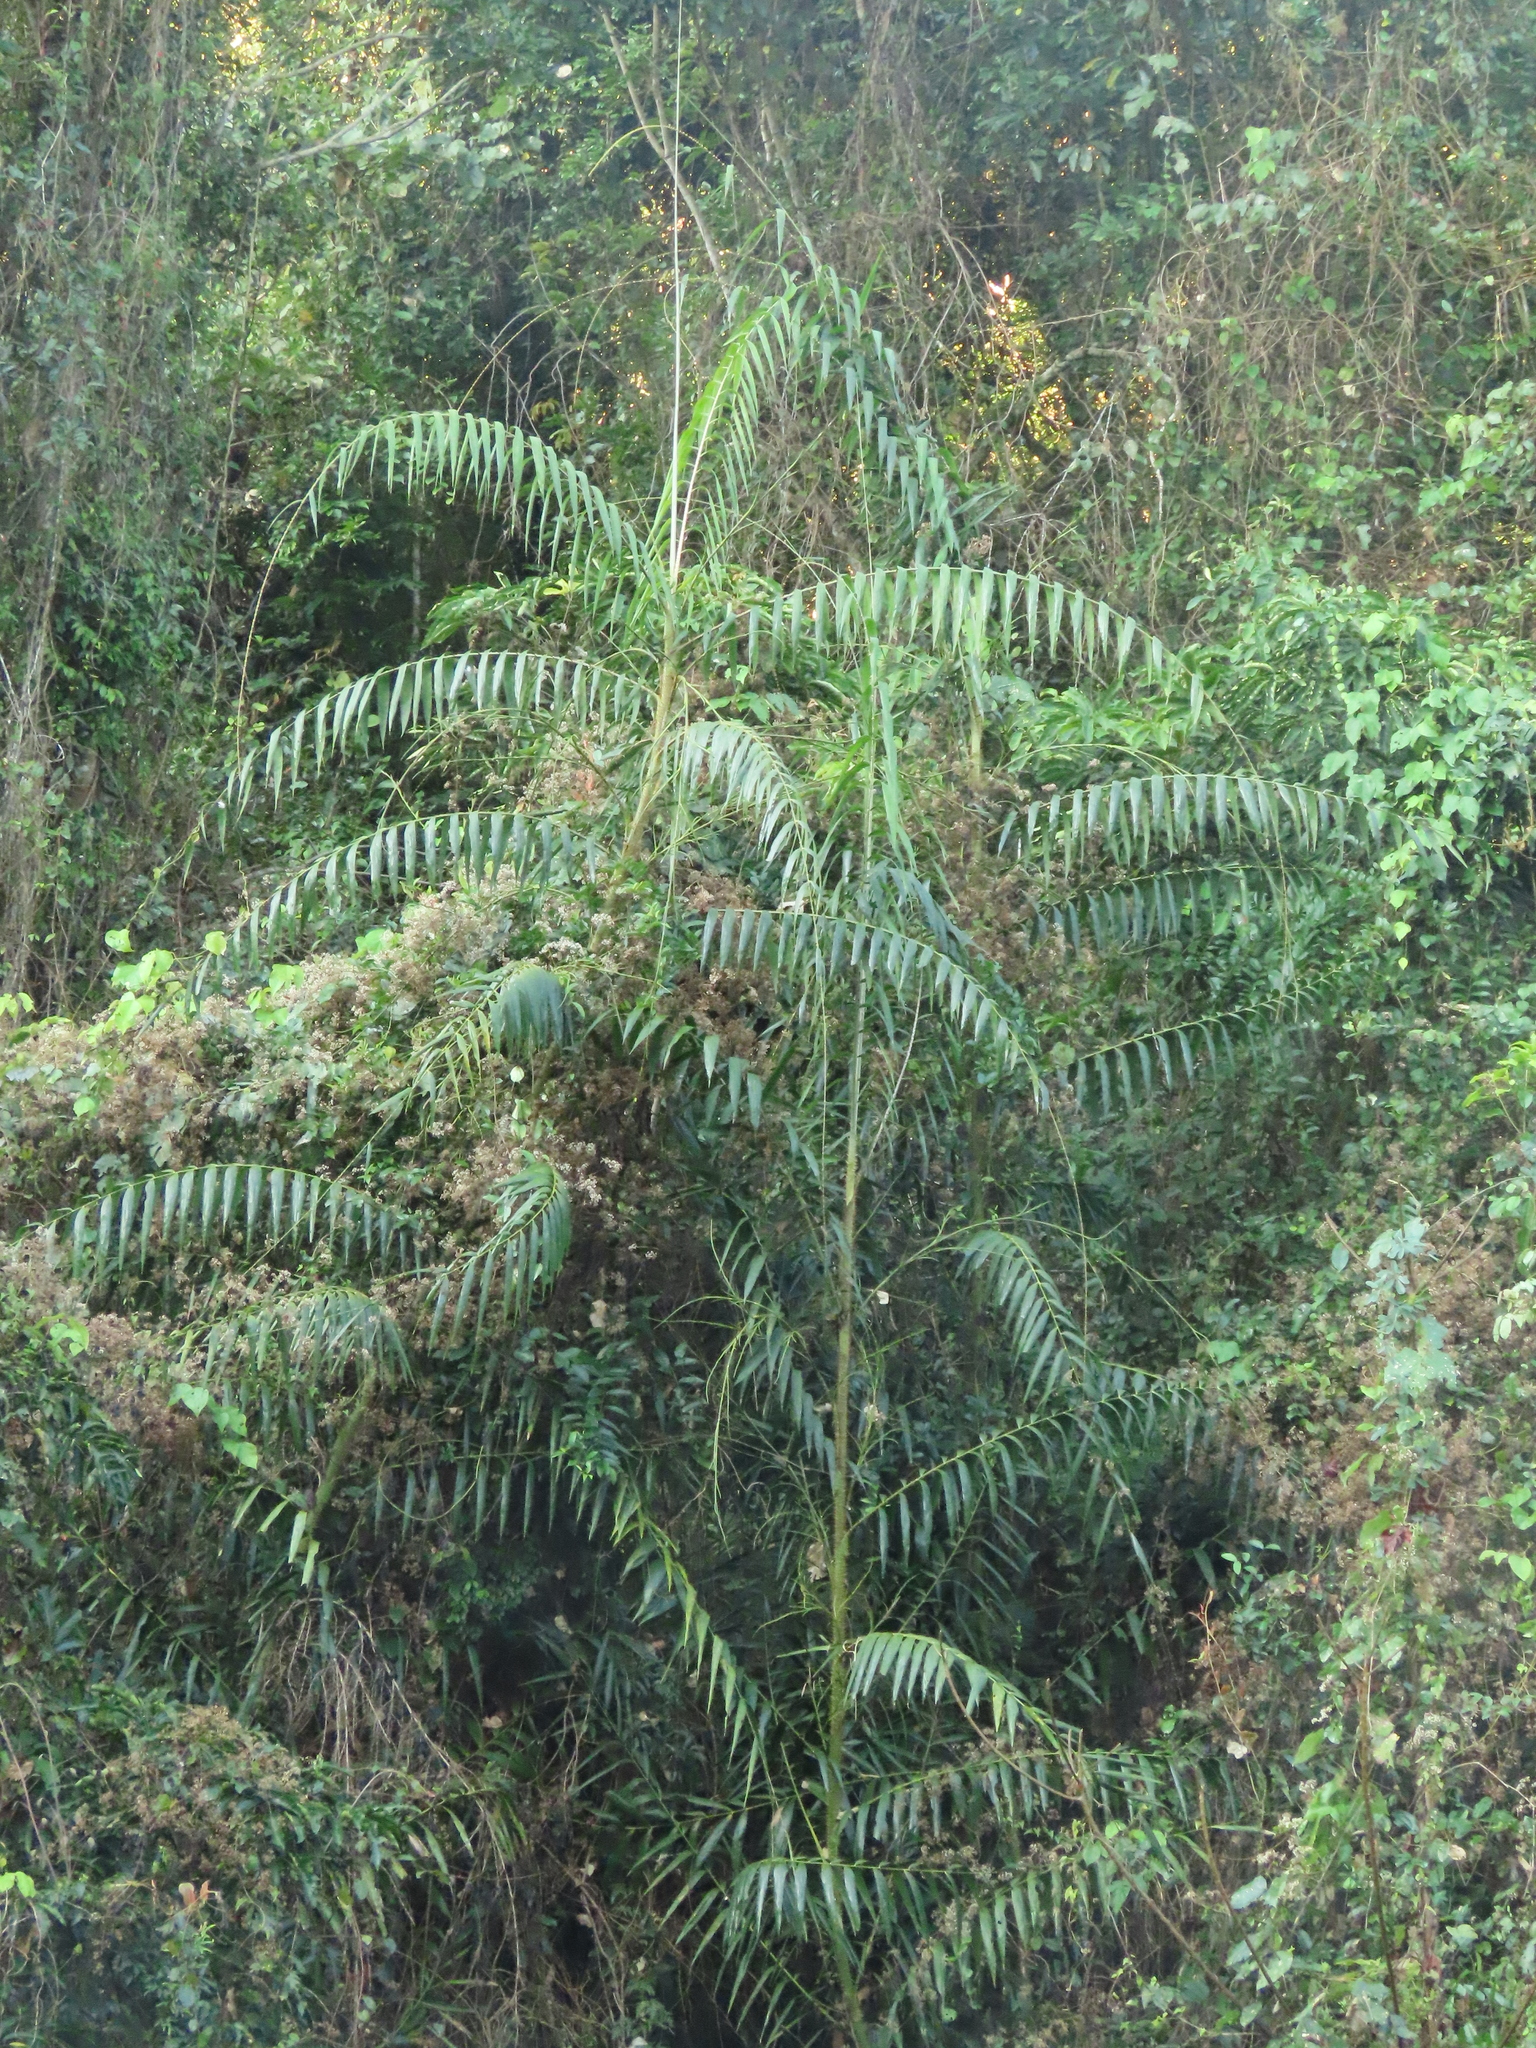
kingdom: Plantae
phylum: Tracheophyta
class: Liliopsida
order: Arecales
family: Arecaceae
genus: Calamus
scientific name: Calamus formosanus
